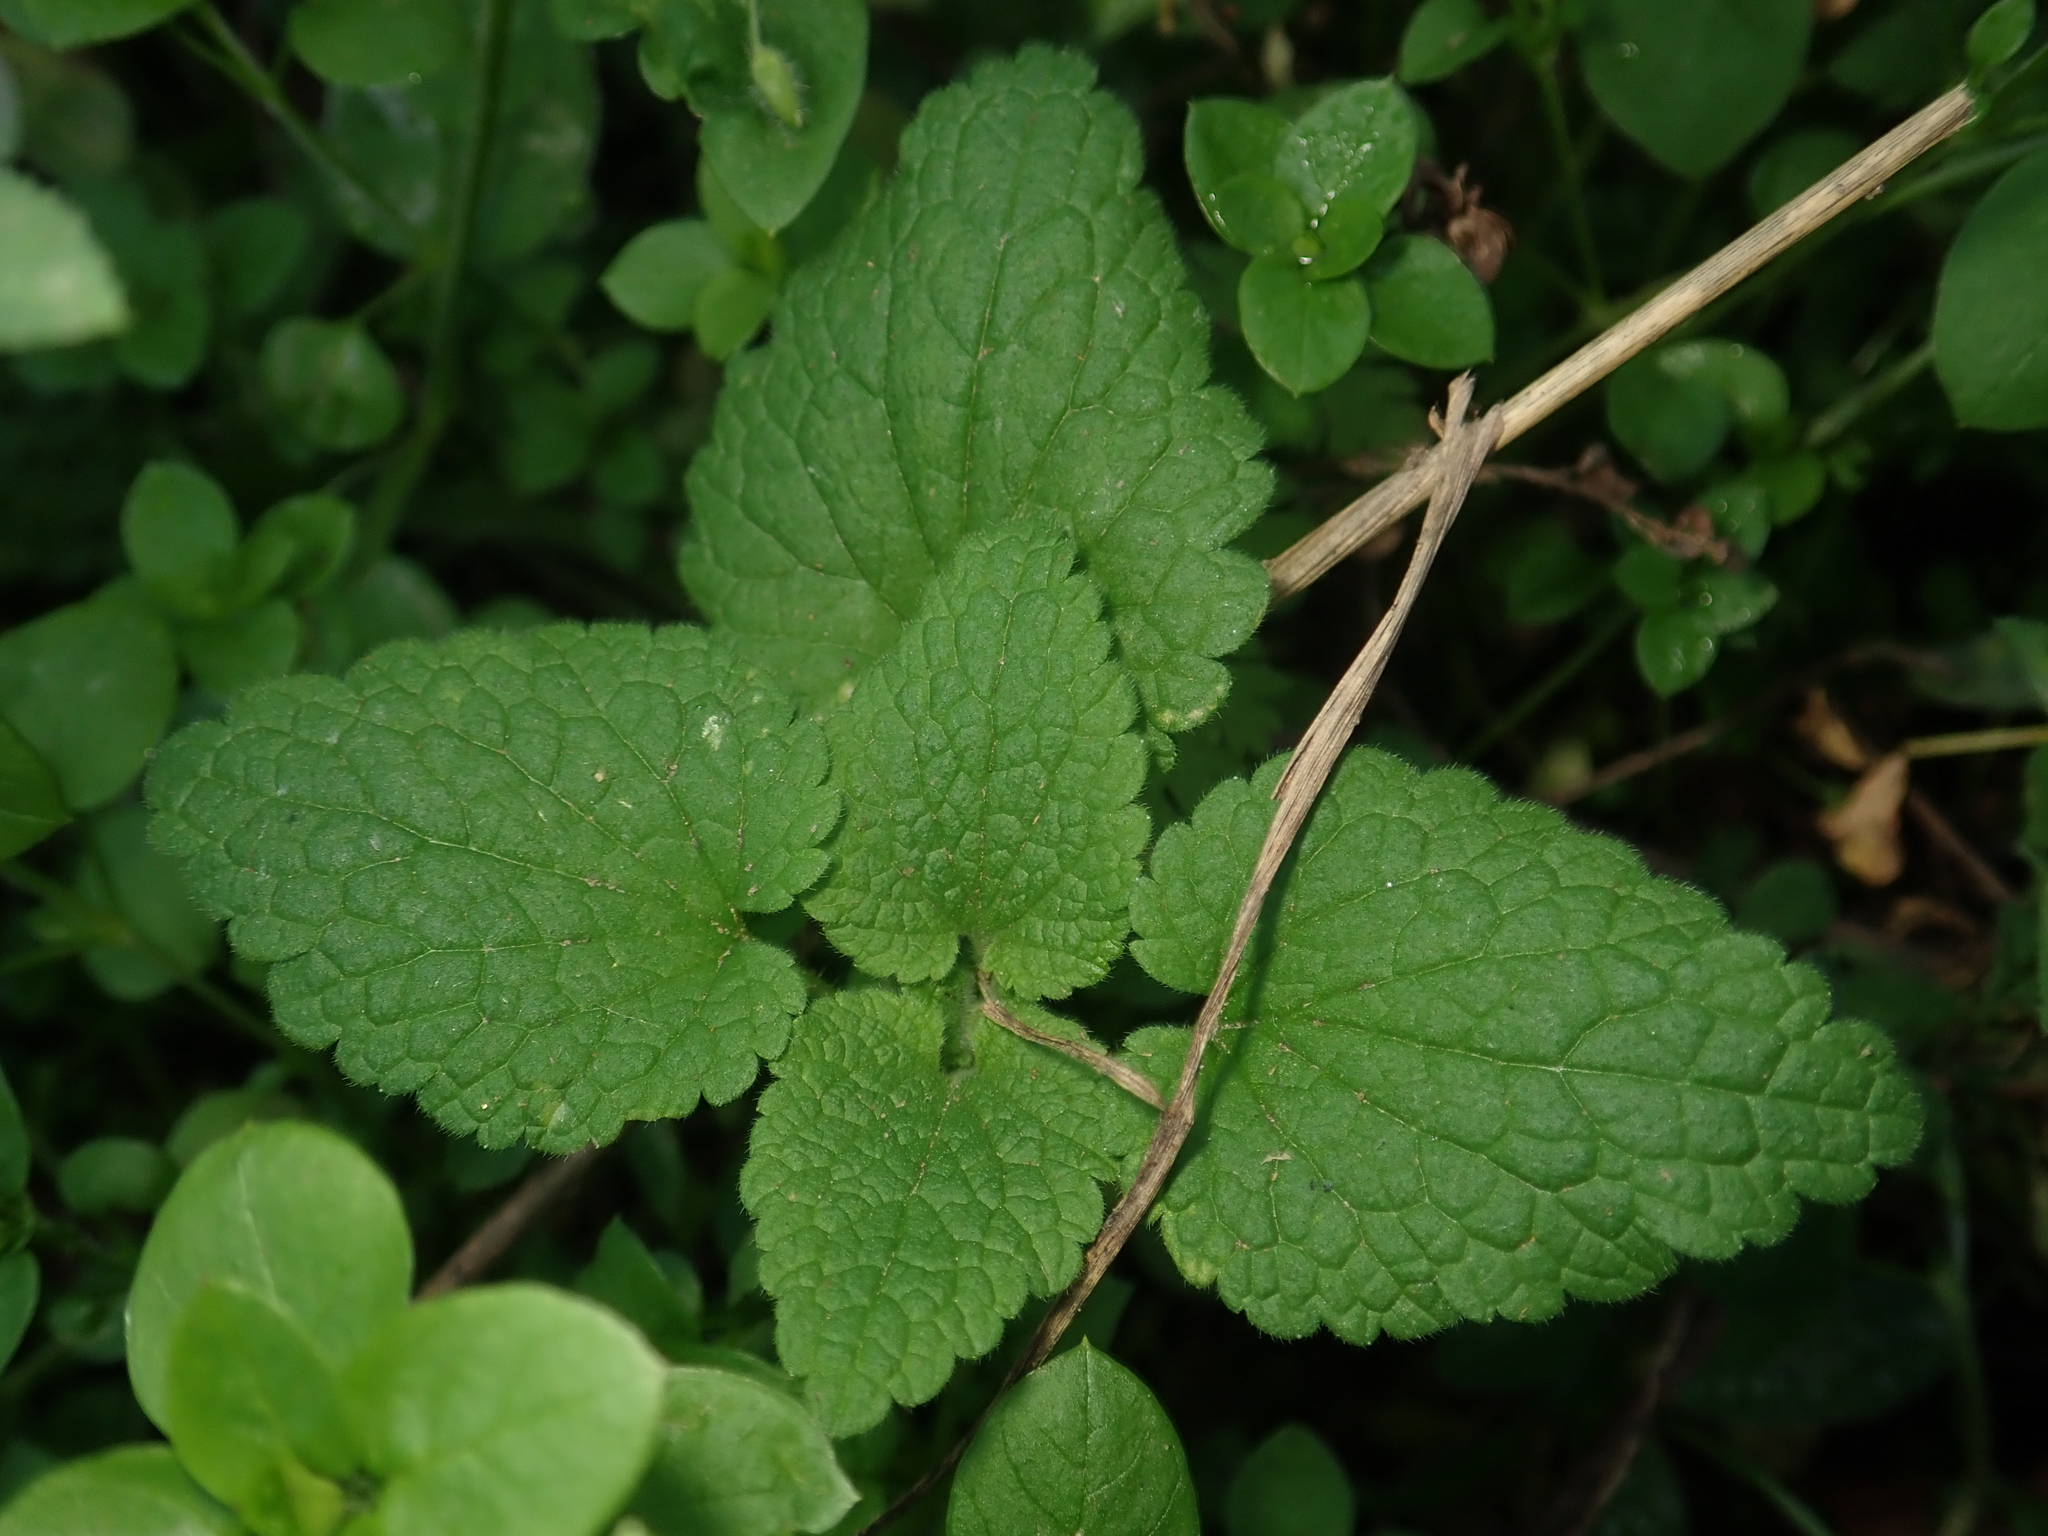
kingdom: Plantae
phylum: Tracheophyta
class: Magnoliopsida
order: Lamiales
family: Lamiaceae
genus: Lamium
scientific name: Lamium purpureum
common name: Red dead-nettle
